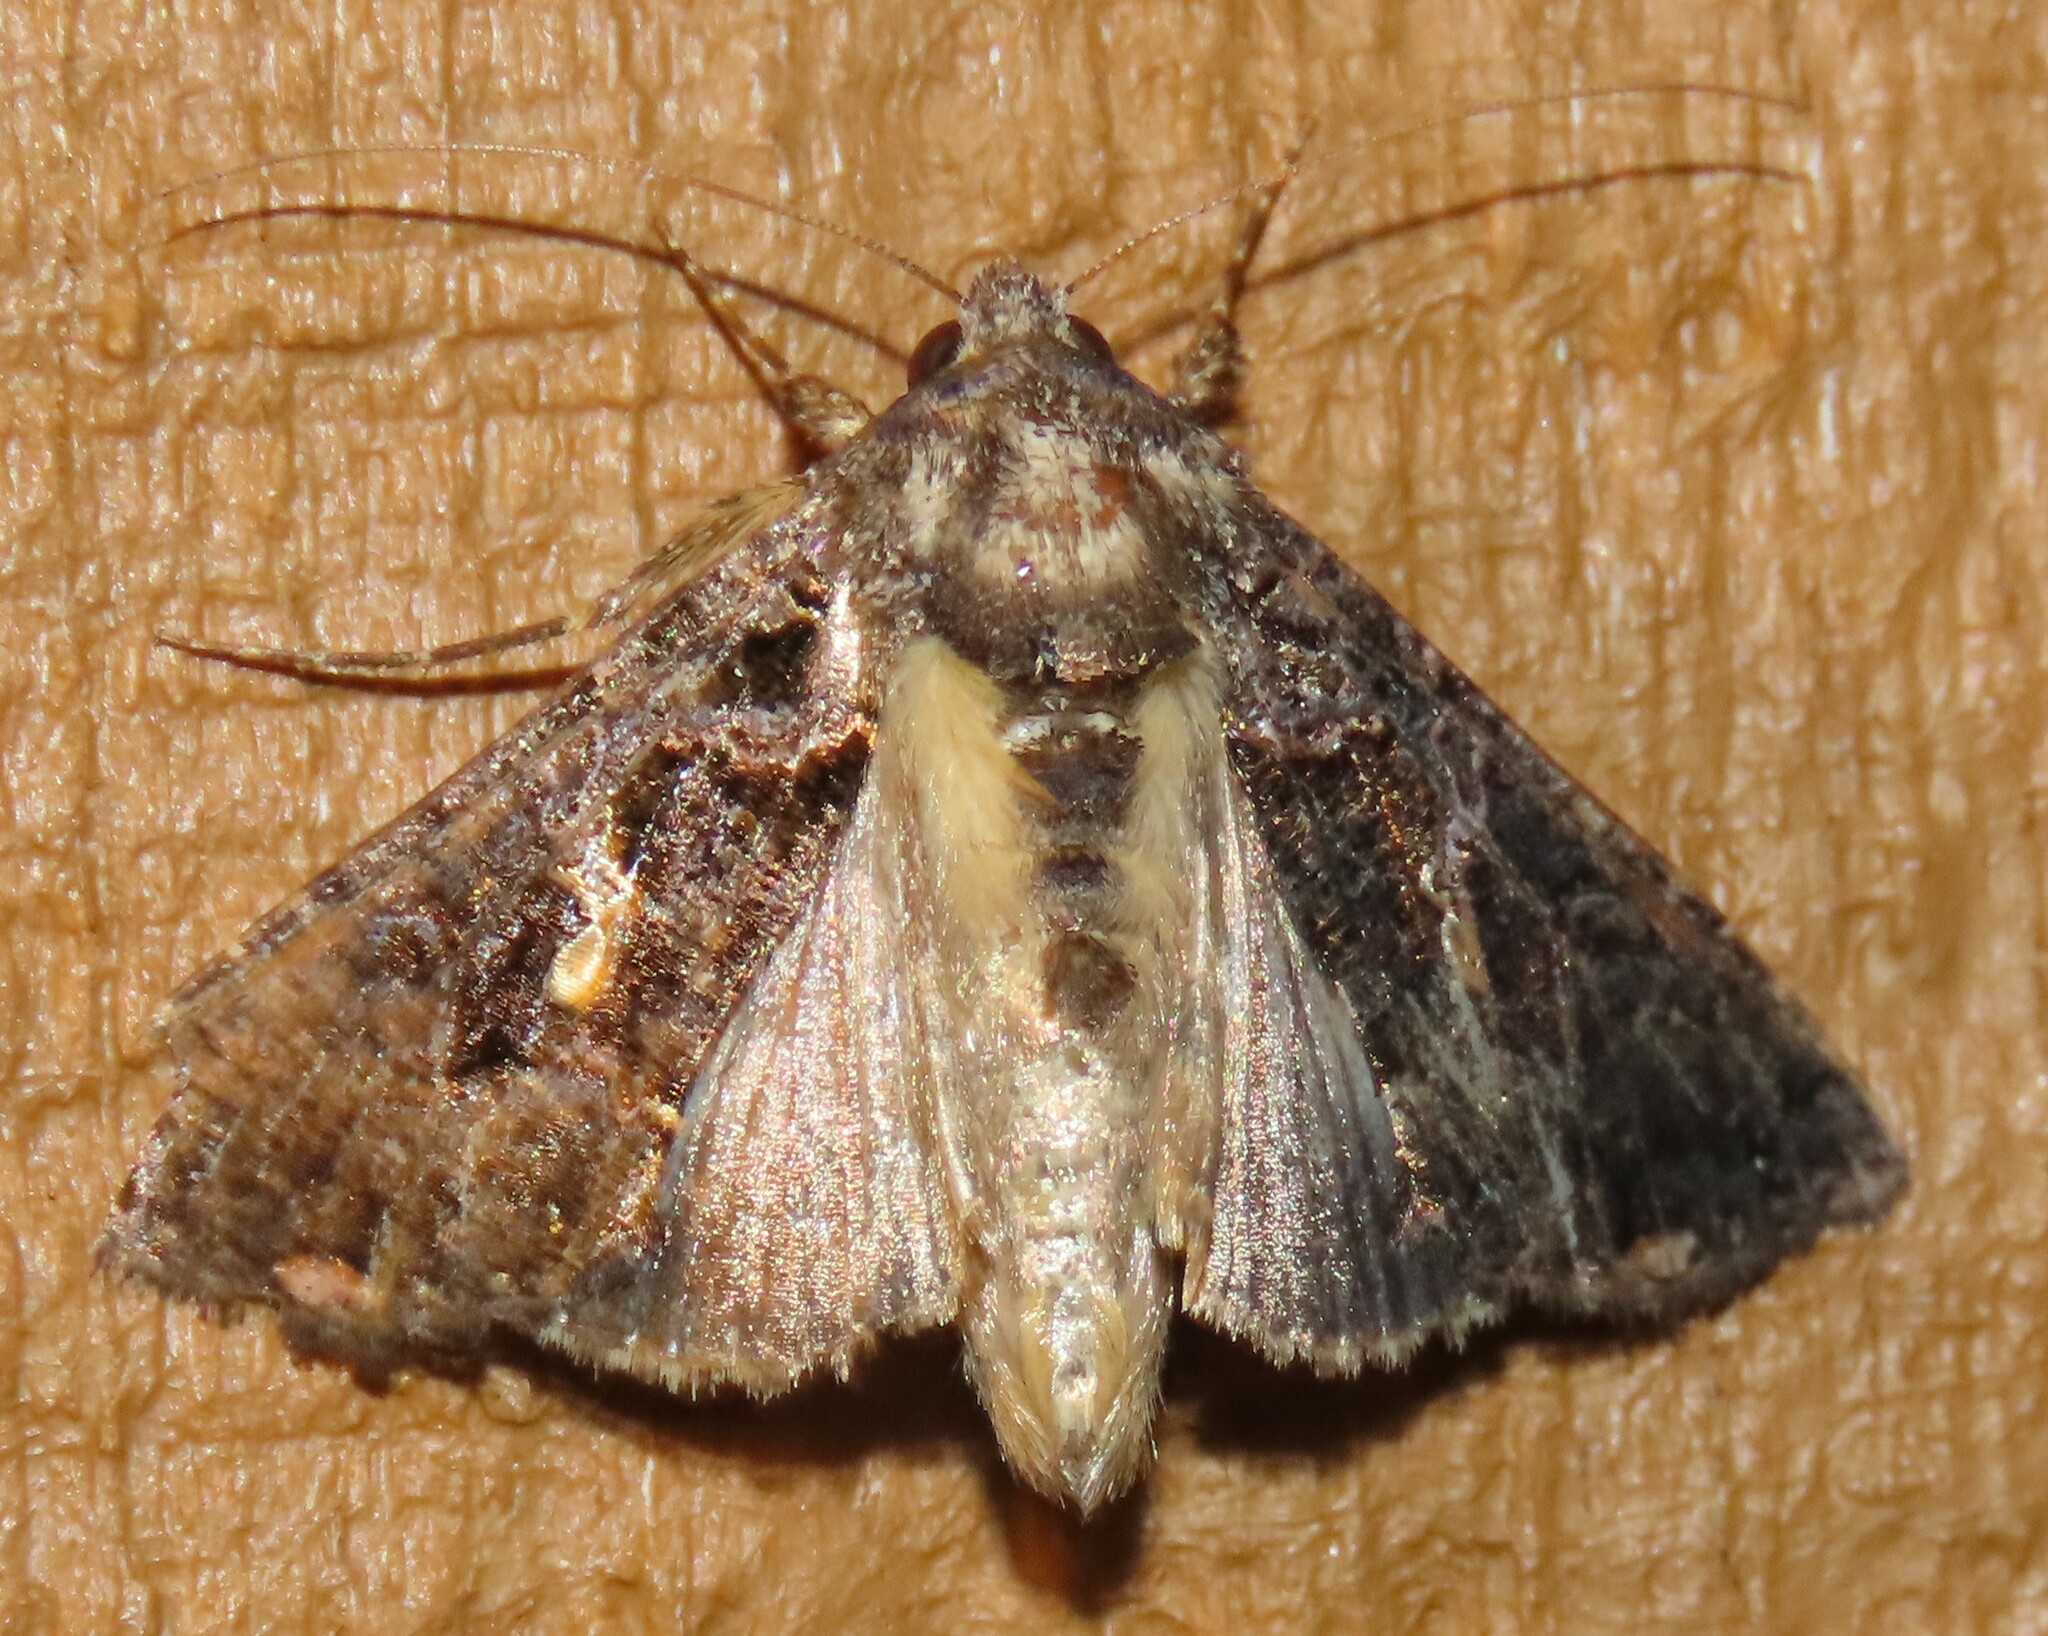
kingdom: Animalia
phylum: Arthropoda
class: Insecta
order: Lepidoptera
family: Noctuidae
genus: Ctenoplusia
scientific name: Ctenoplusia limbirena
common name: Scar bank gem
